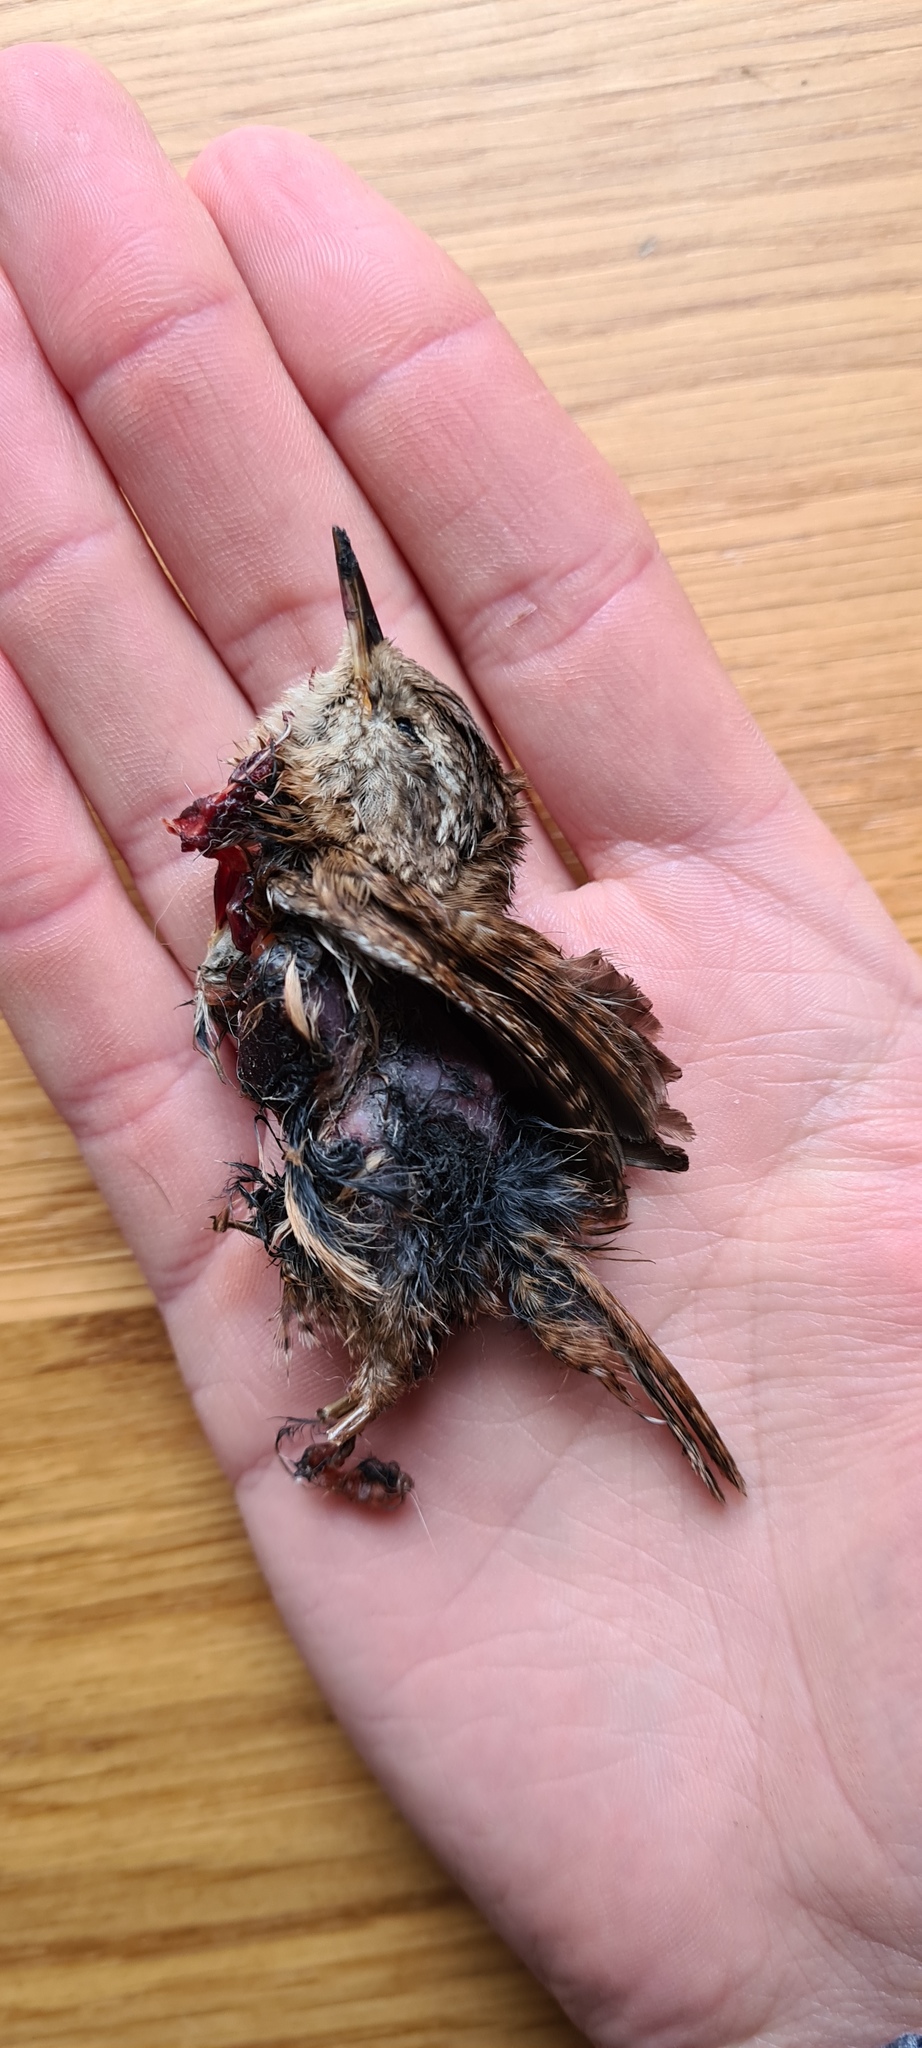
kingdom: Animalia
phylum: Chordata
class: Aves
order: Passeriformes
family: Troglodytidae
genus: Troglodytes
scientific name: Troglodytes troglodytes
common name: Eurasian wren
